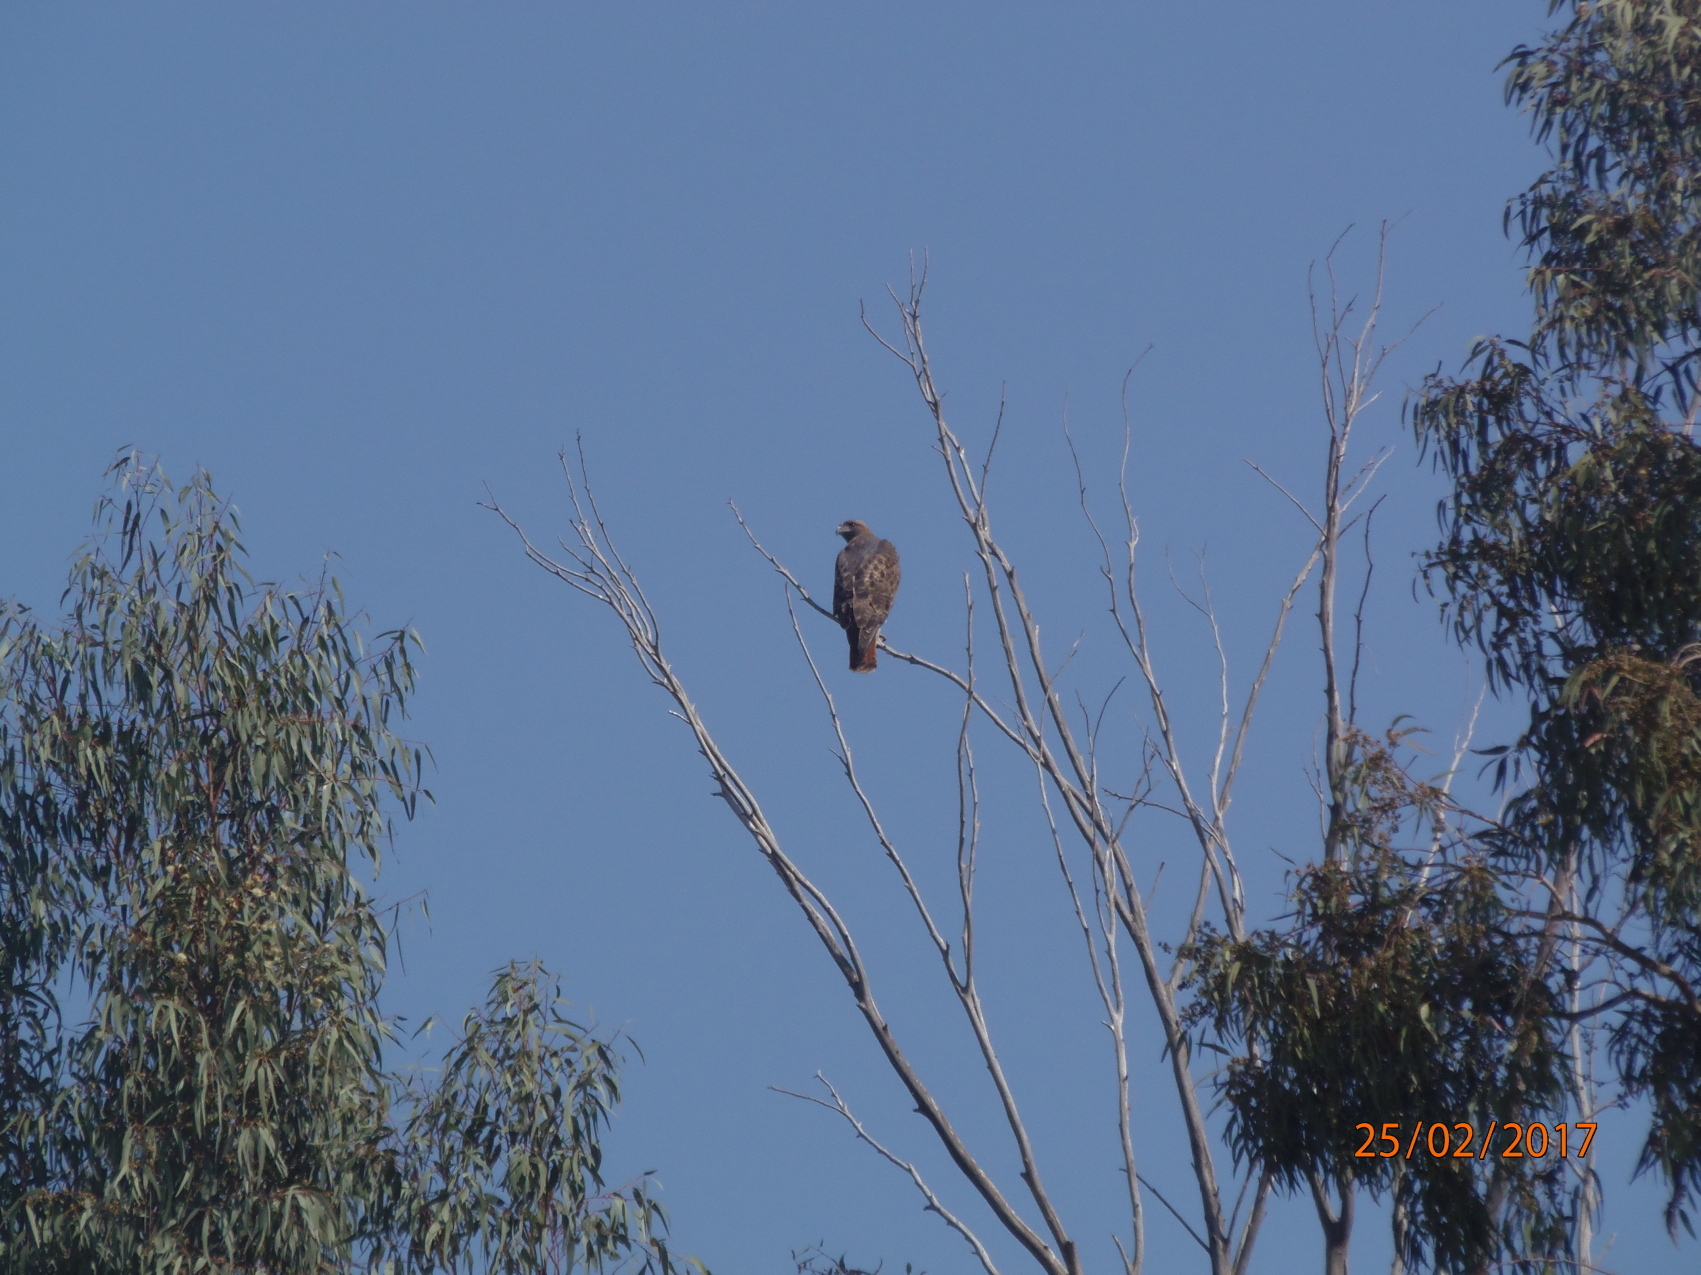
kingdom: Animalia
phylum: Chordata
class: Aves
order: Accipitriformes
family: Accipitridae
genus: Buteo
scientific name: Buteo jamaicensis
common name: Red-tailed hawk
